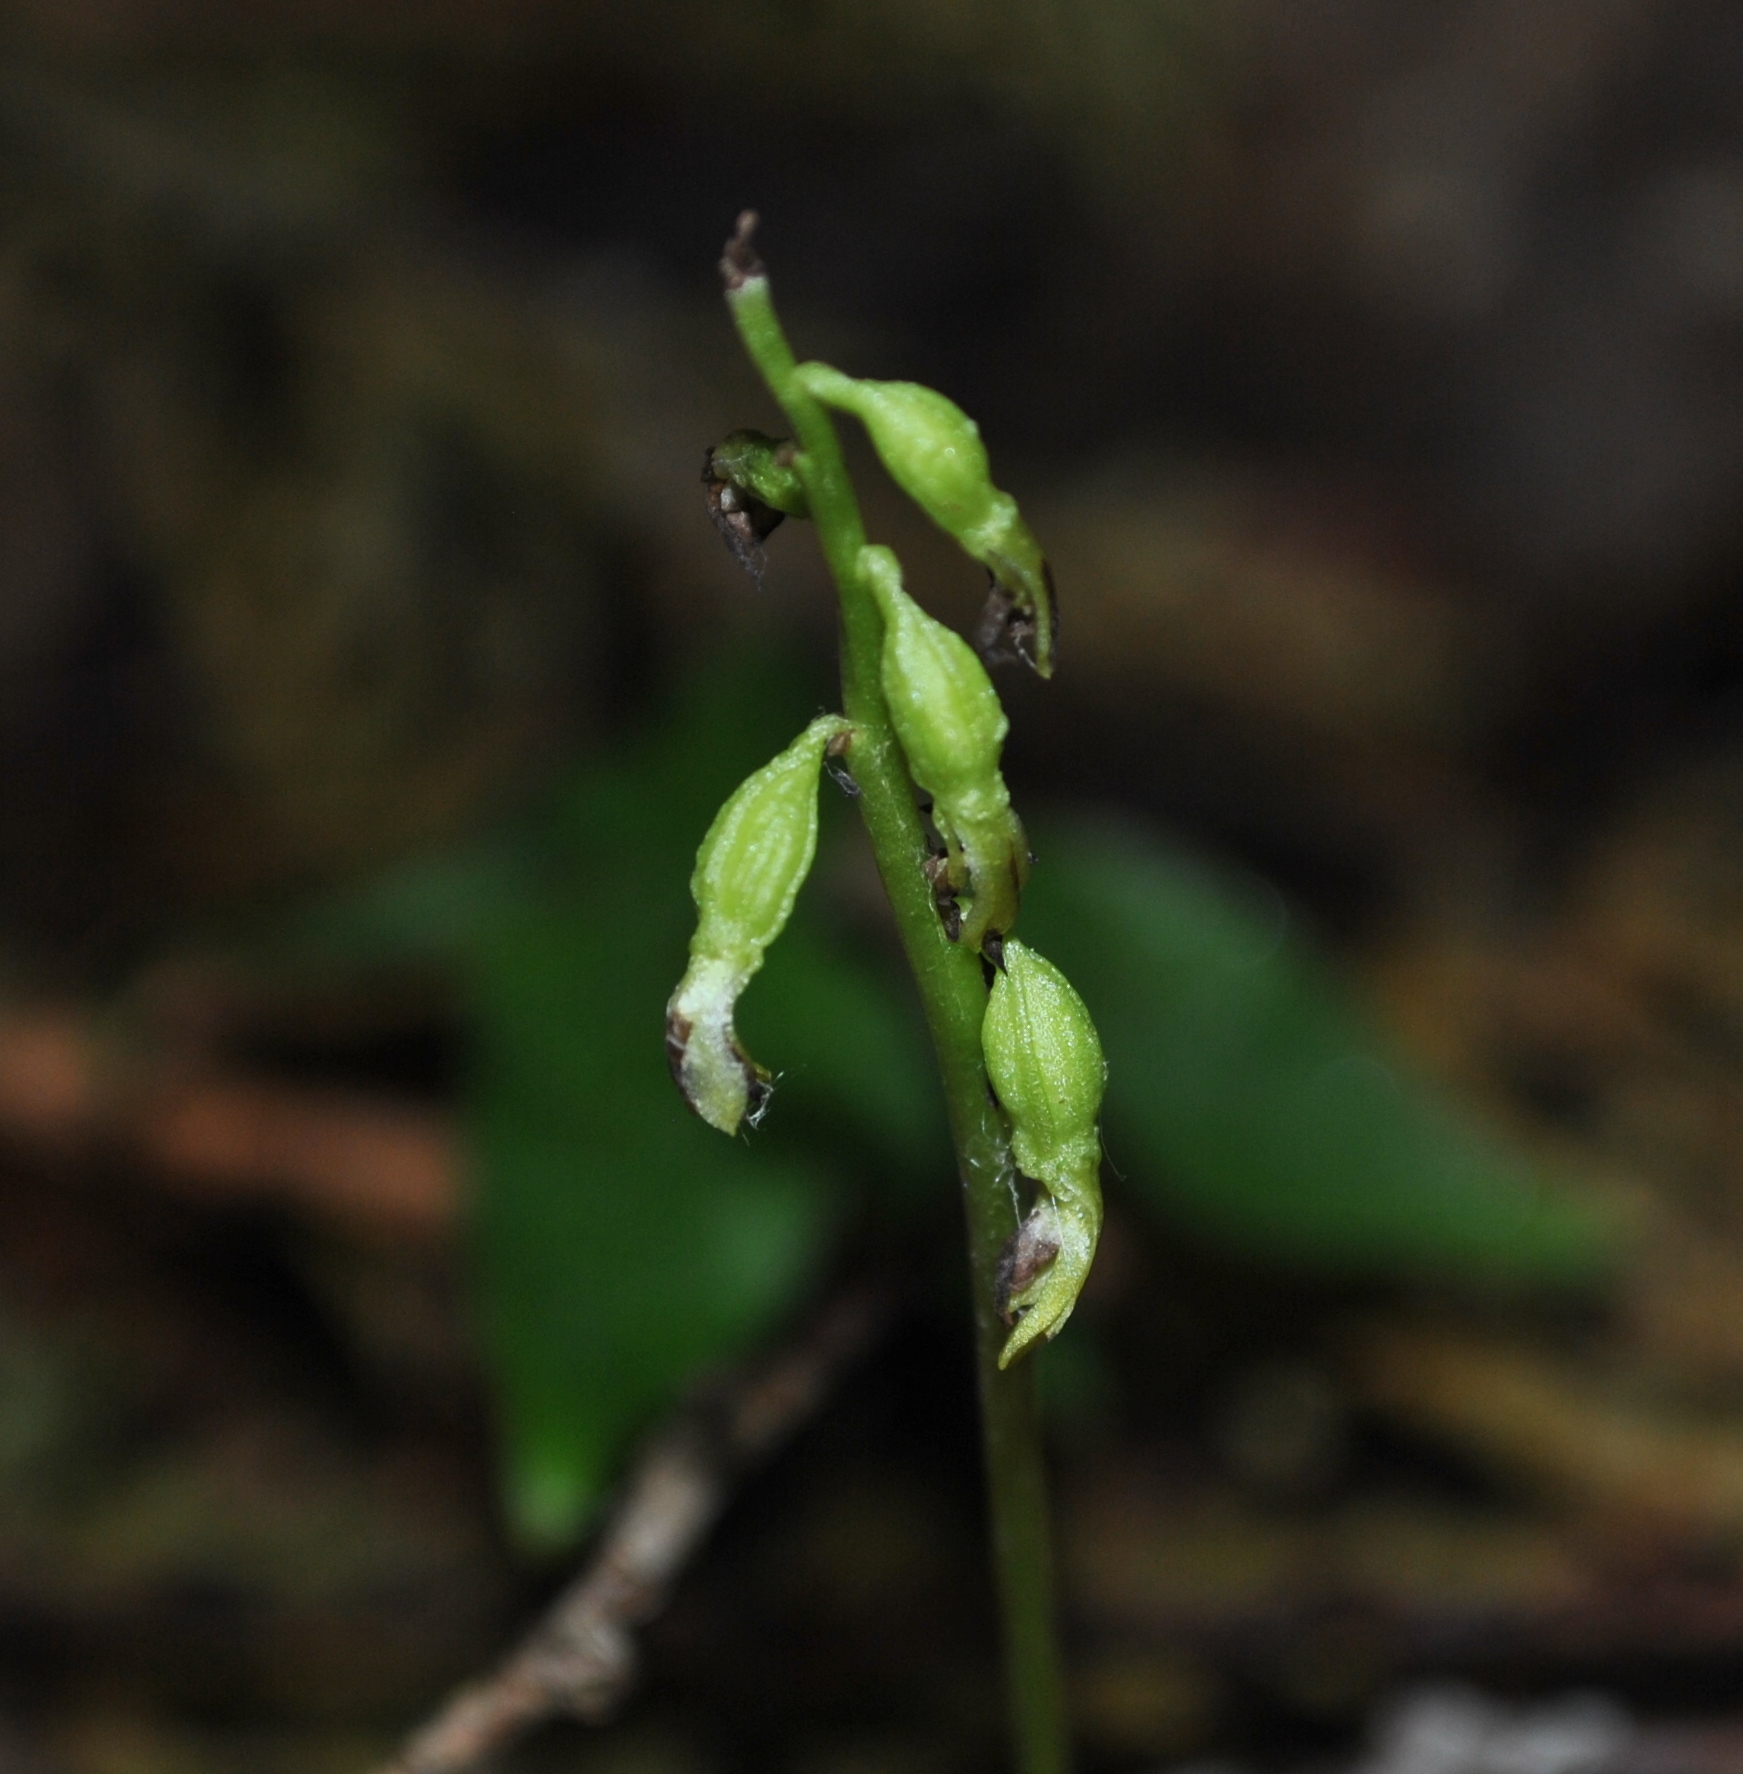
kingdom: Plantae
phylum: Tracheophyta
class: Liliopsida
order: Asparagales
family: Orchidaceae
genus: Corallorhiza
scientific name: Corallorhiza trifida
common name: Yellow coralroot
